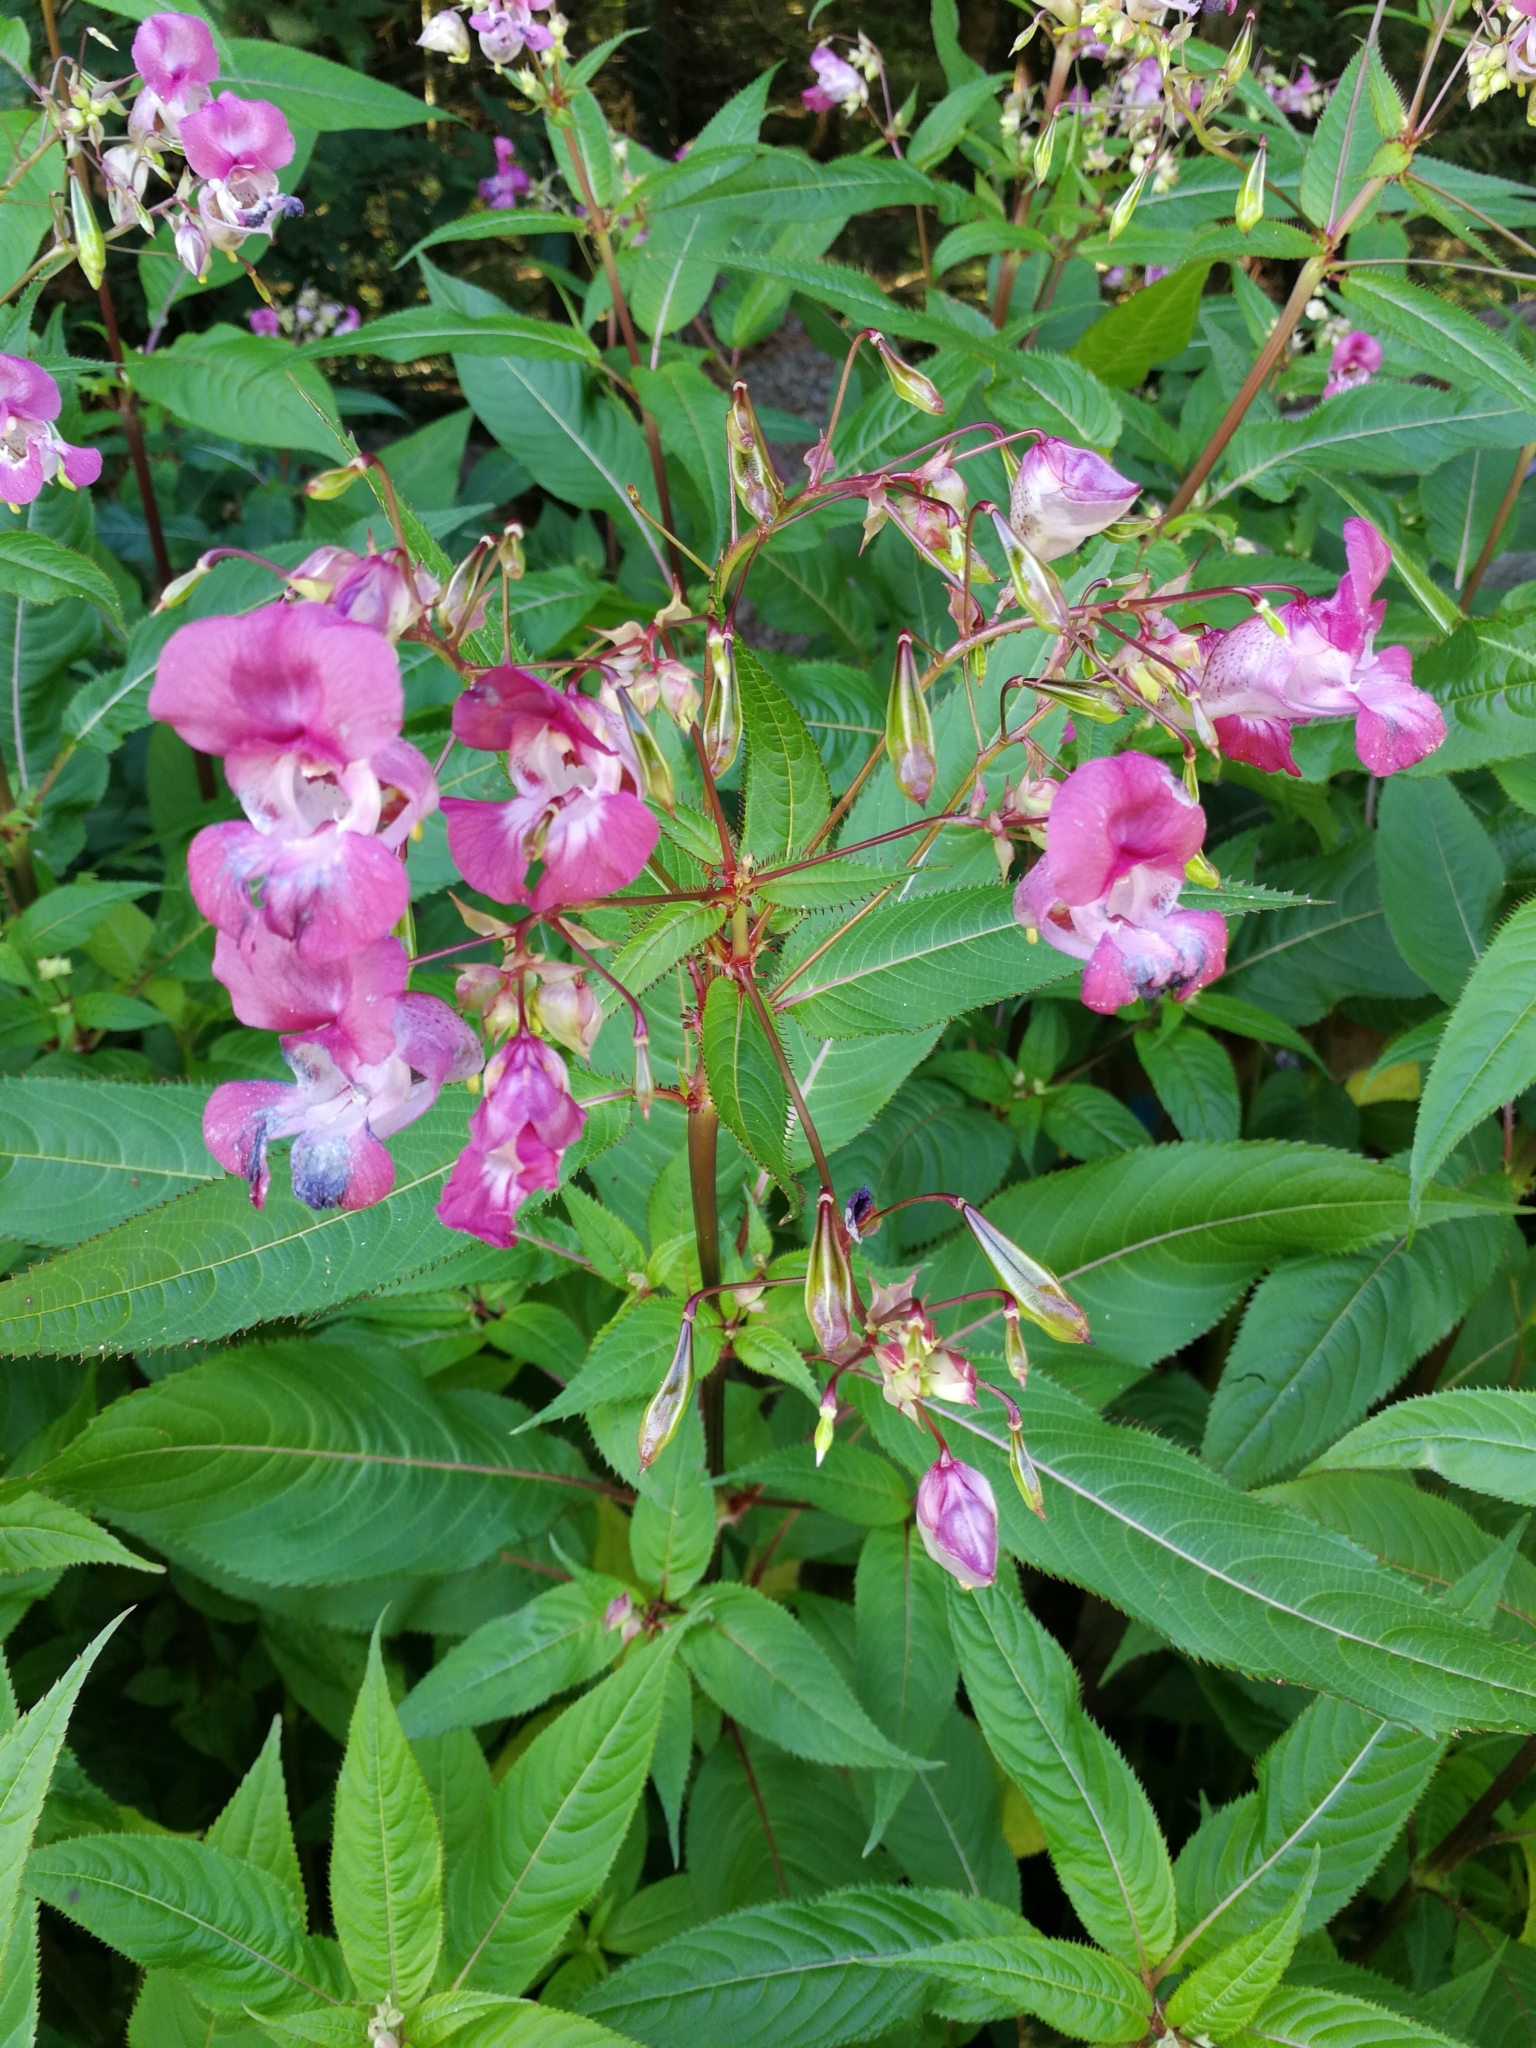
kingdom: Plantae
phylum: Tracheophyta
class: Magnoliopsida
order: Ericales
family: Balsaminaceae
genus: Impatiens
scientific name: Impatiens glandulifera
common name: Himalayan balsam
